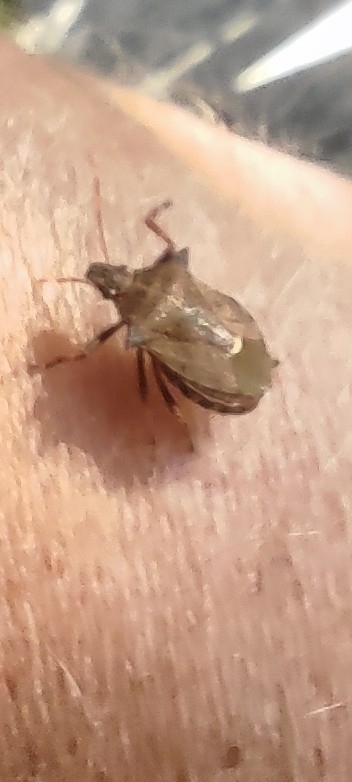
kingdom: Animalia
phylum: Arthropoda
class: Insecta
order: Hemiptera
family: Pentatomidae
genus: Picromerus
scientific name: Picromerus bidens
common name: Spiked shieldbug
